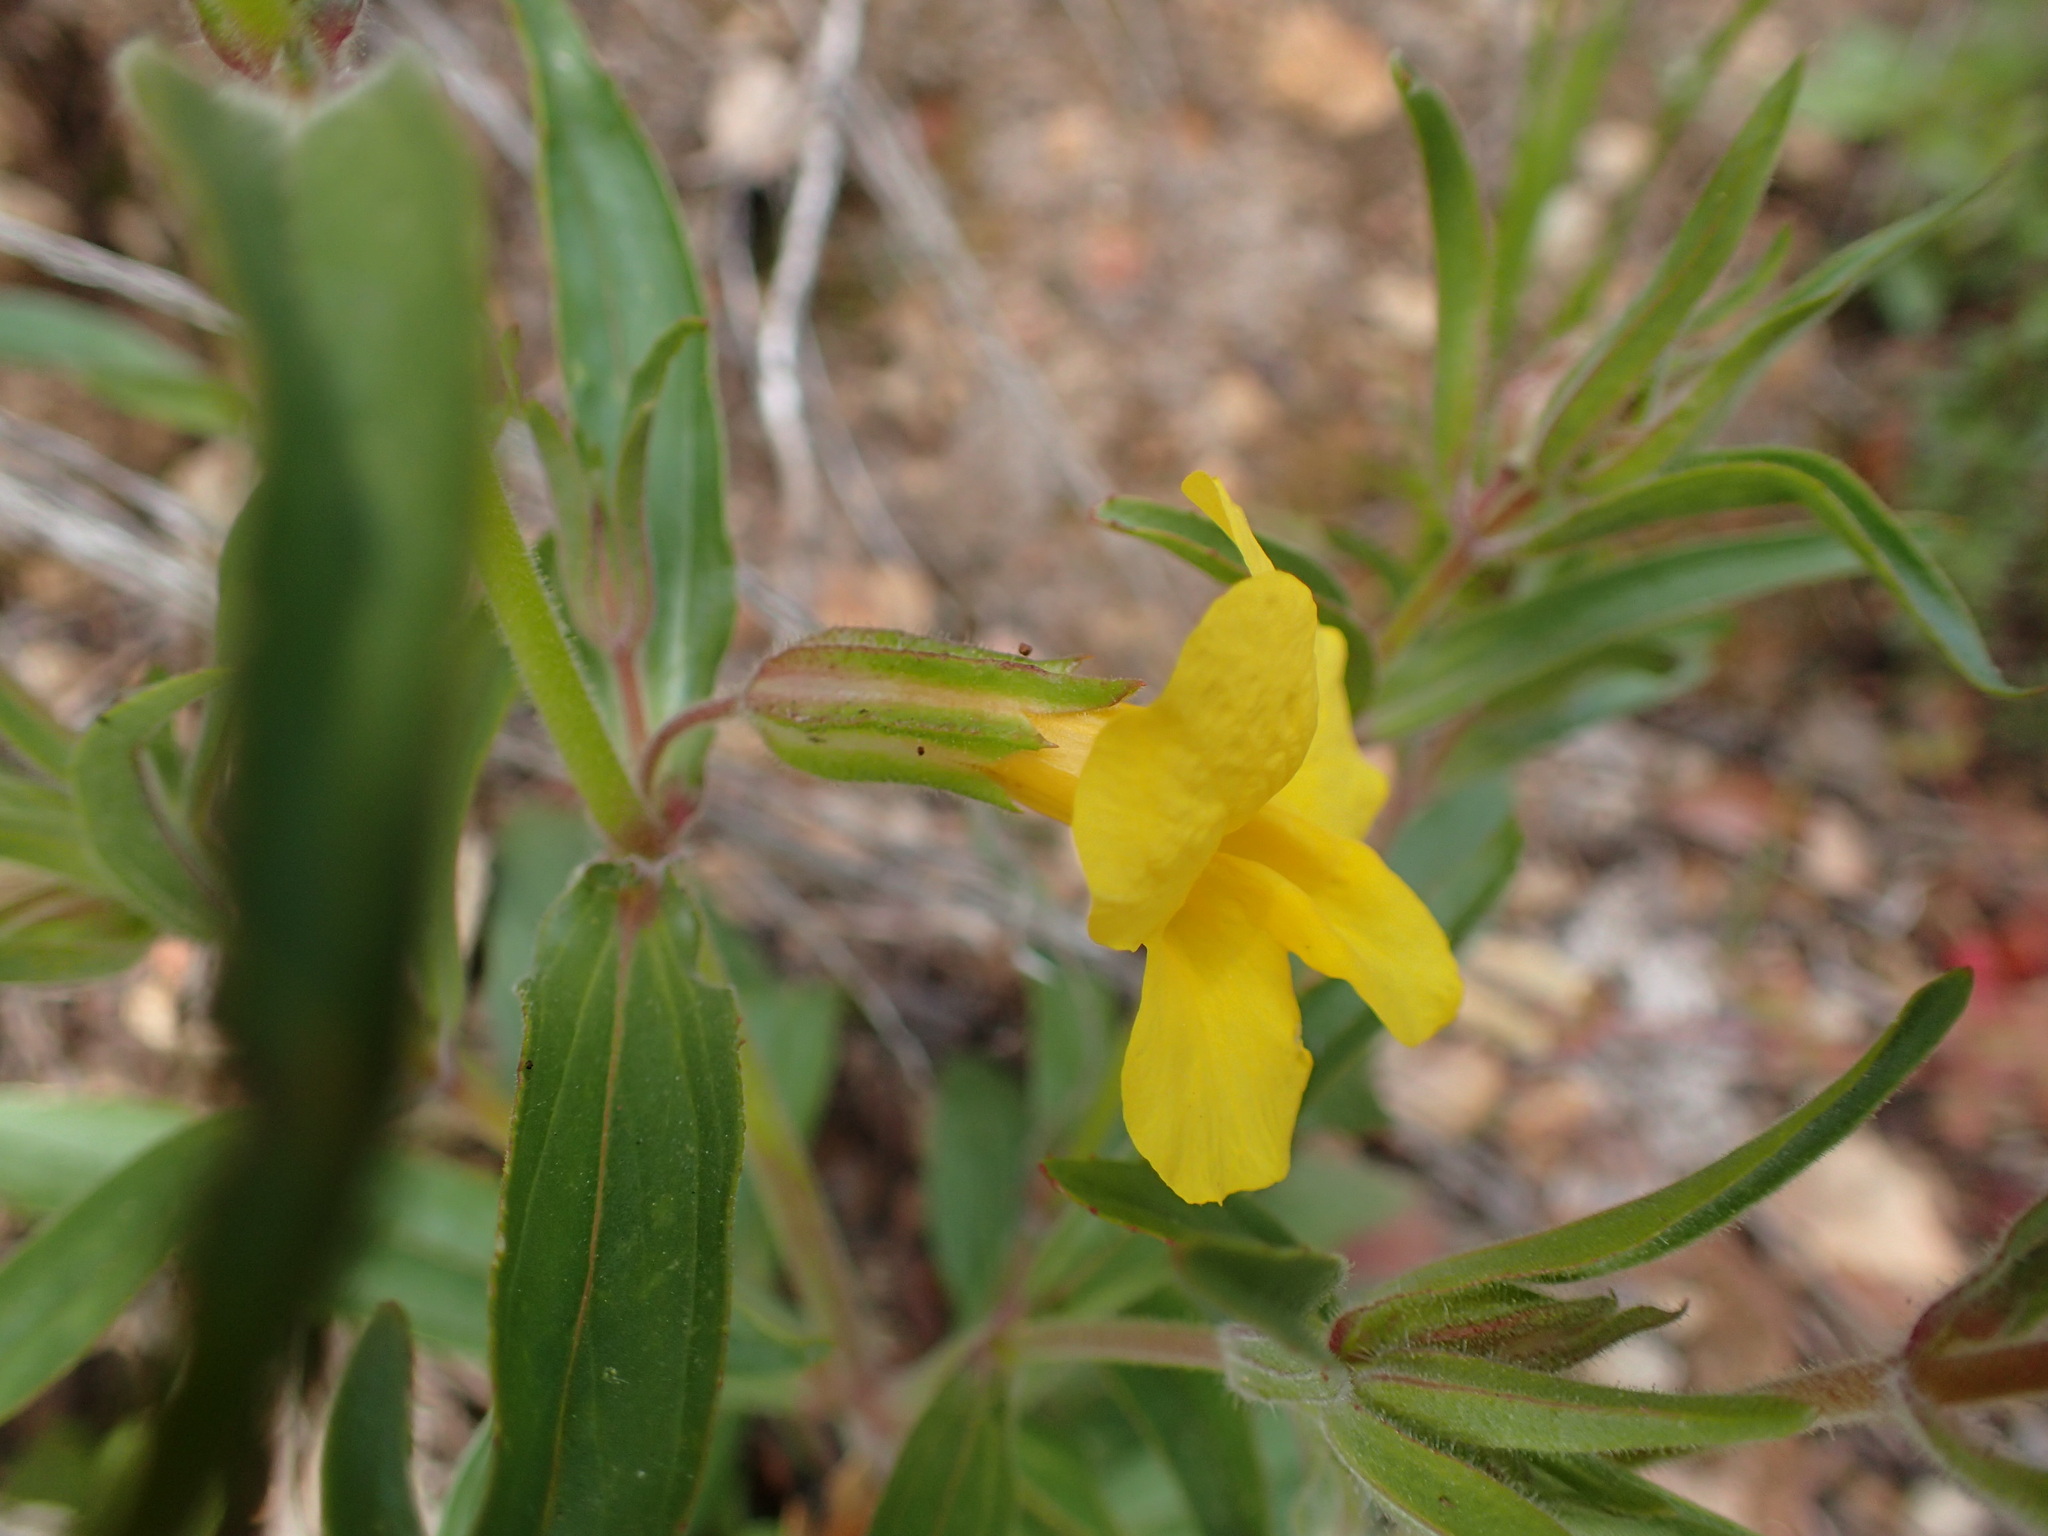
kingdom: Plantae
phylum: Tracheophyta
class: Magnoliopsida
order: Lamiales
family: Phrymaceae
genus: Diplacus
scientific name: Diplacus brevipes
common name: Wide-throat yellow monkey-flower
